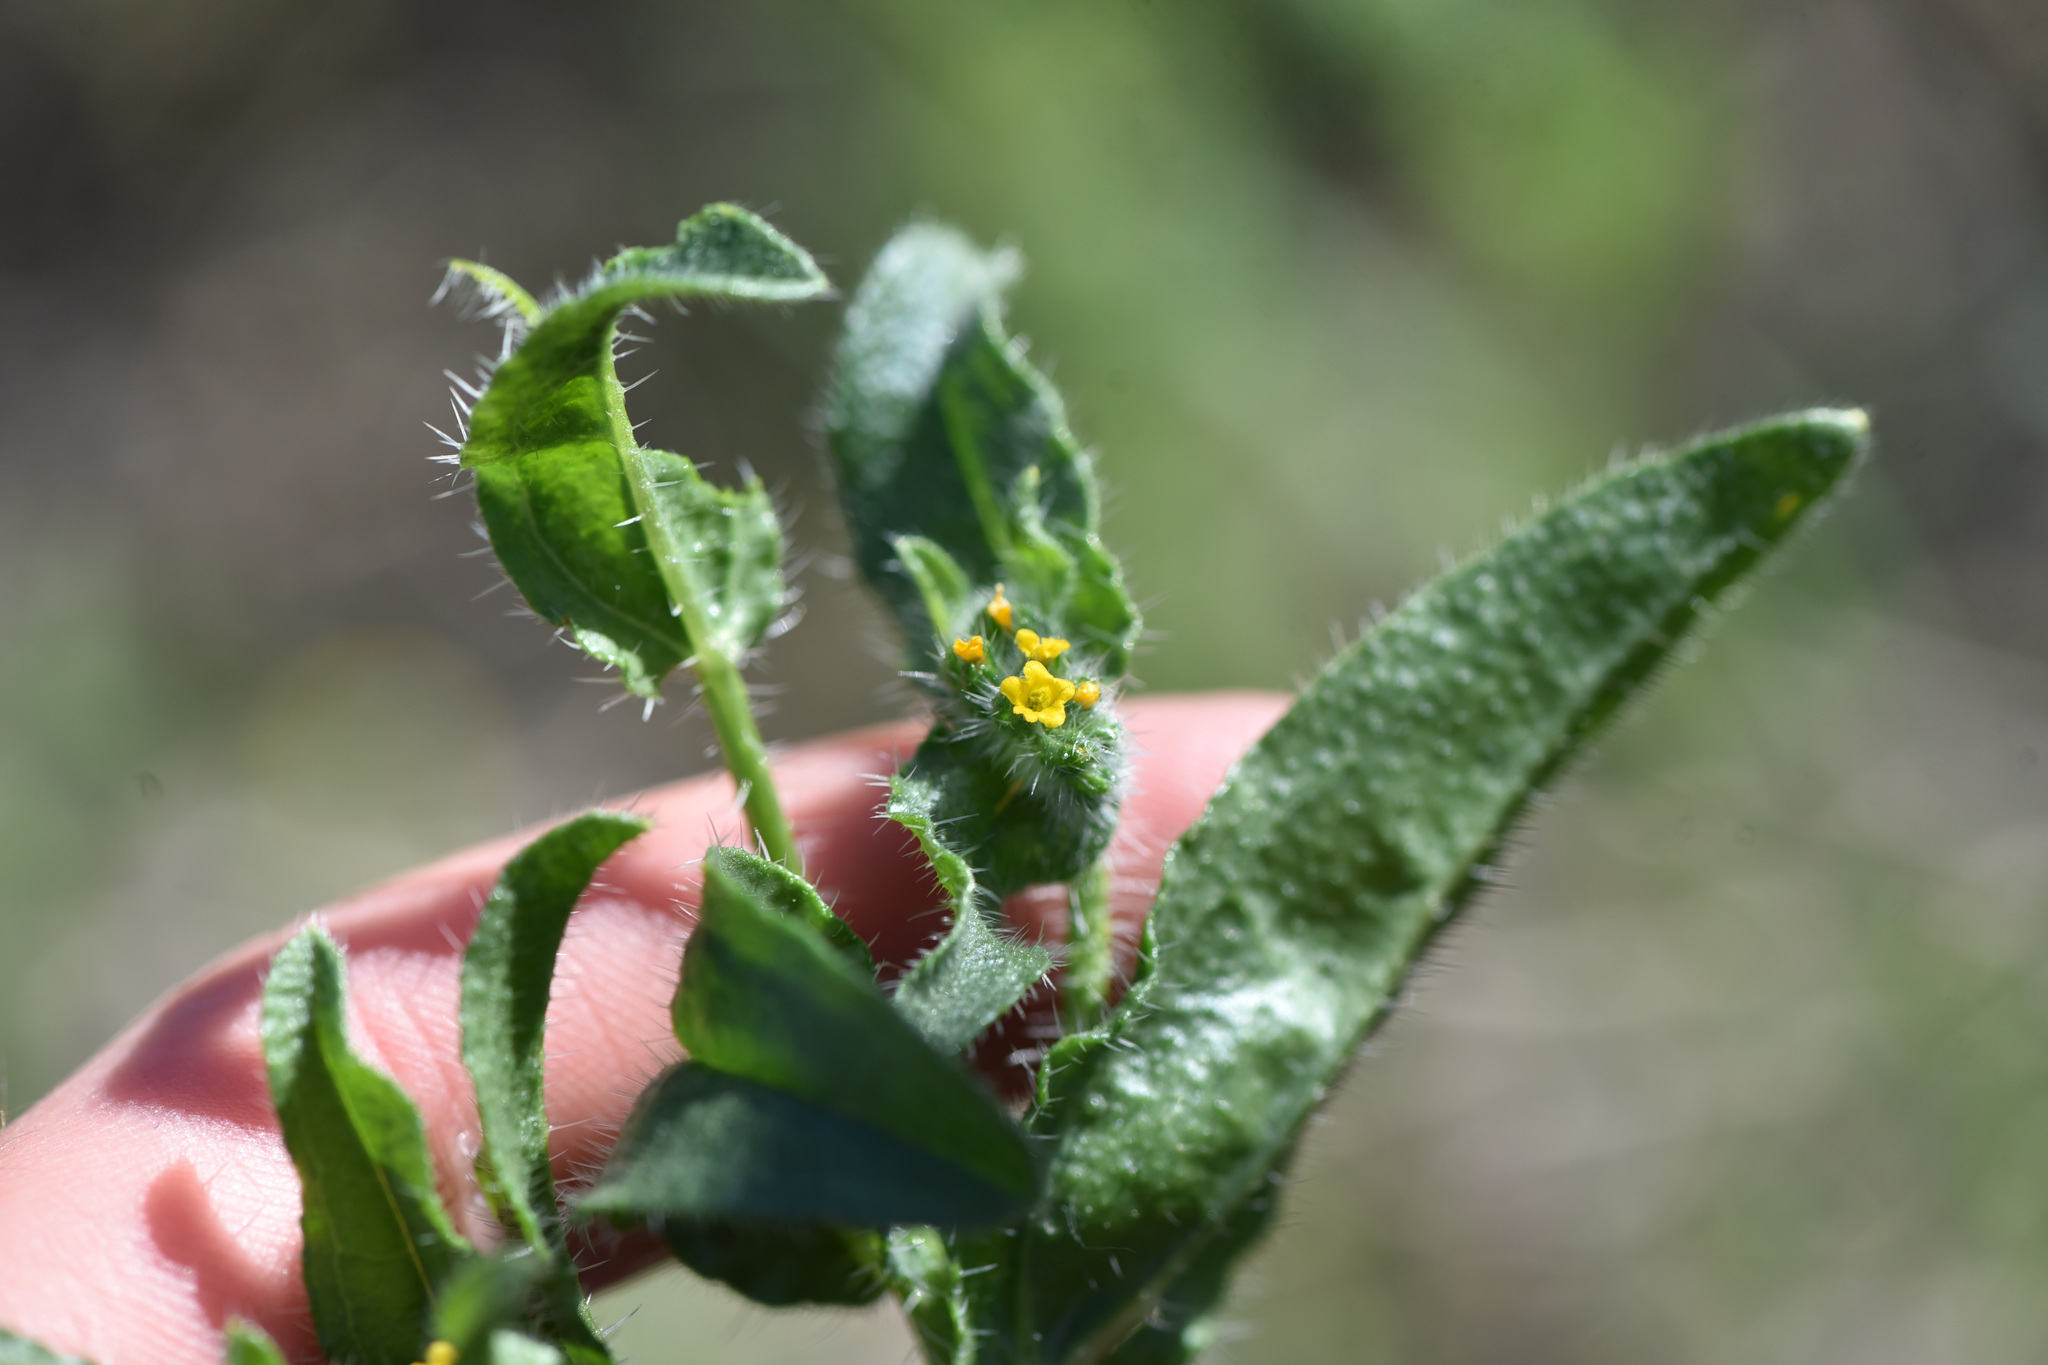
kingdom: Plantae
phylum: Tracheophyta
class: Magnoliopsida
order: Boraginales
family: Boraginaceae
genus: Amsinckia
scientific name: Amsinckia menziesii
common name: Menzies' fiddleneck
